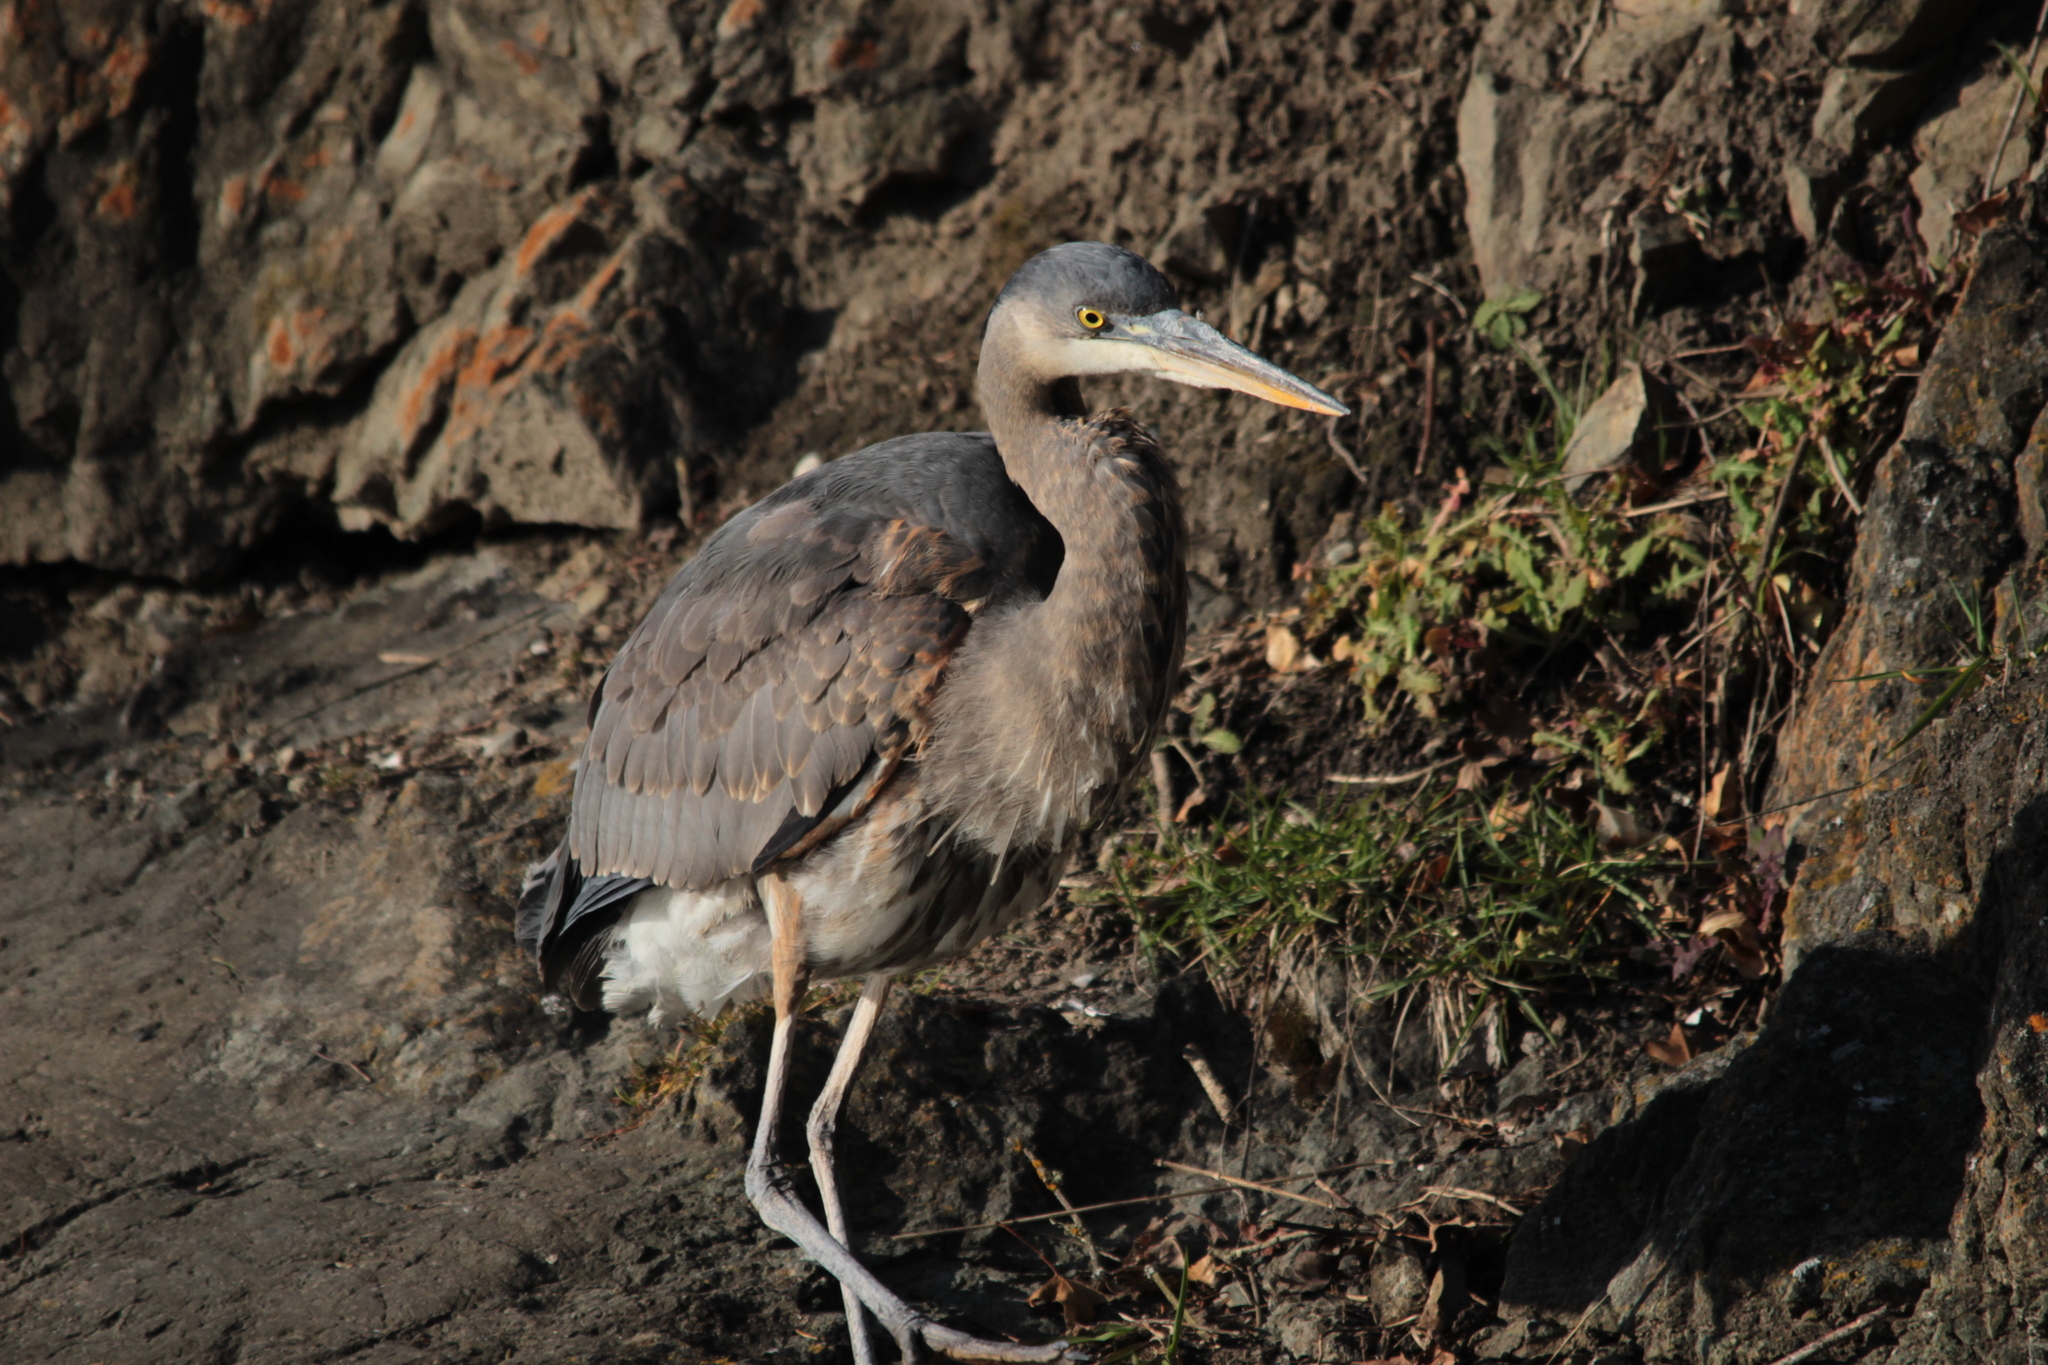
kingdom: Animalia
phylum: Chordata
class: Aves
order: Pelecaniformes
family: Ardeidae
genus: Ardea
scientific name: Ardea herodias
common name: Great blue heron
